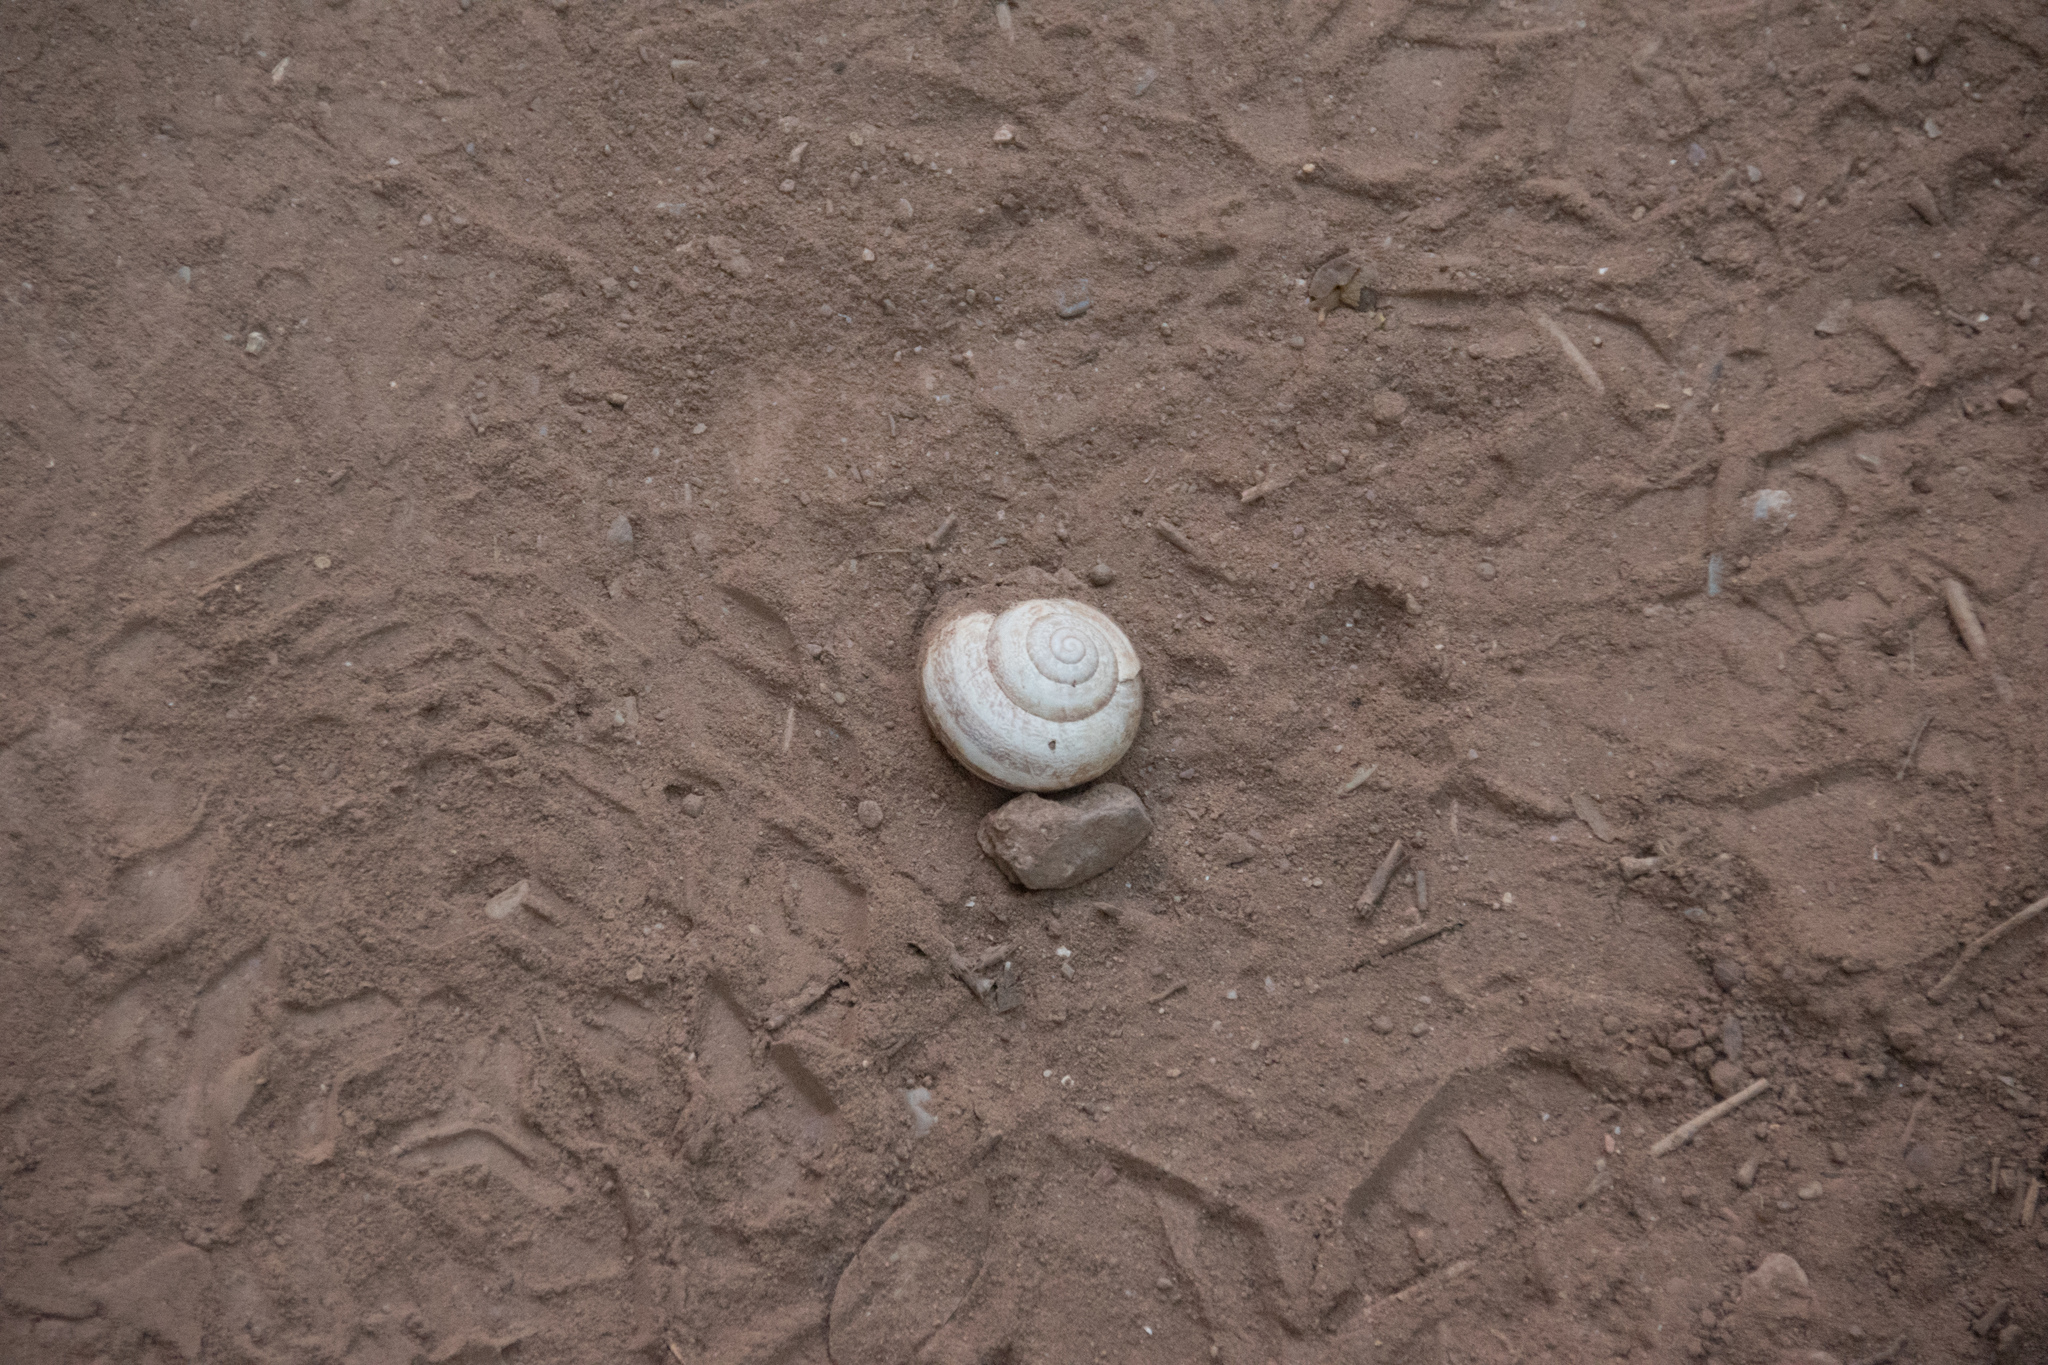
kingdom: Animalia
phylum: Mollusca
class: Gastropoda
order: Stylommatophora
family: Helicidae
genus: Eobania
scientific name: Eobania vermiculata
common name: Chocolateband snail
